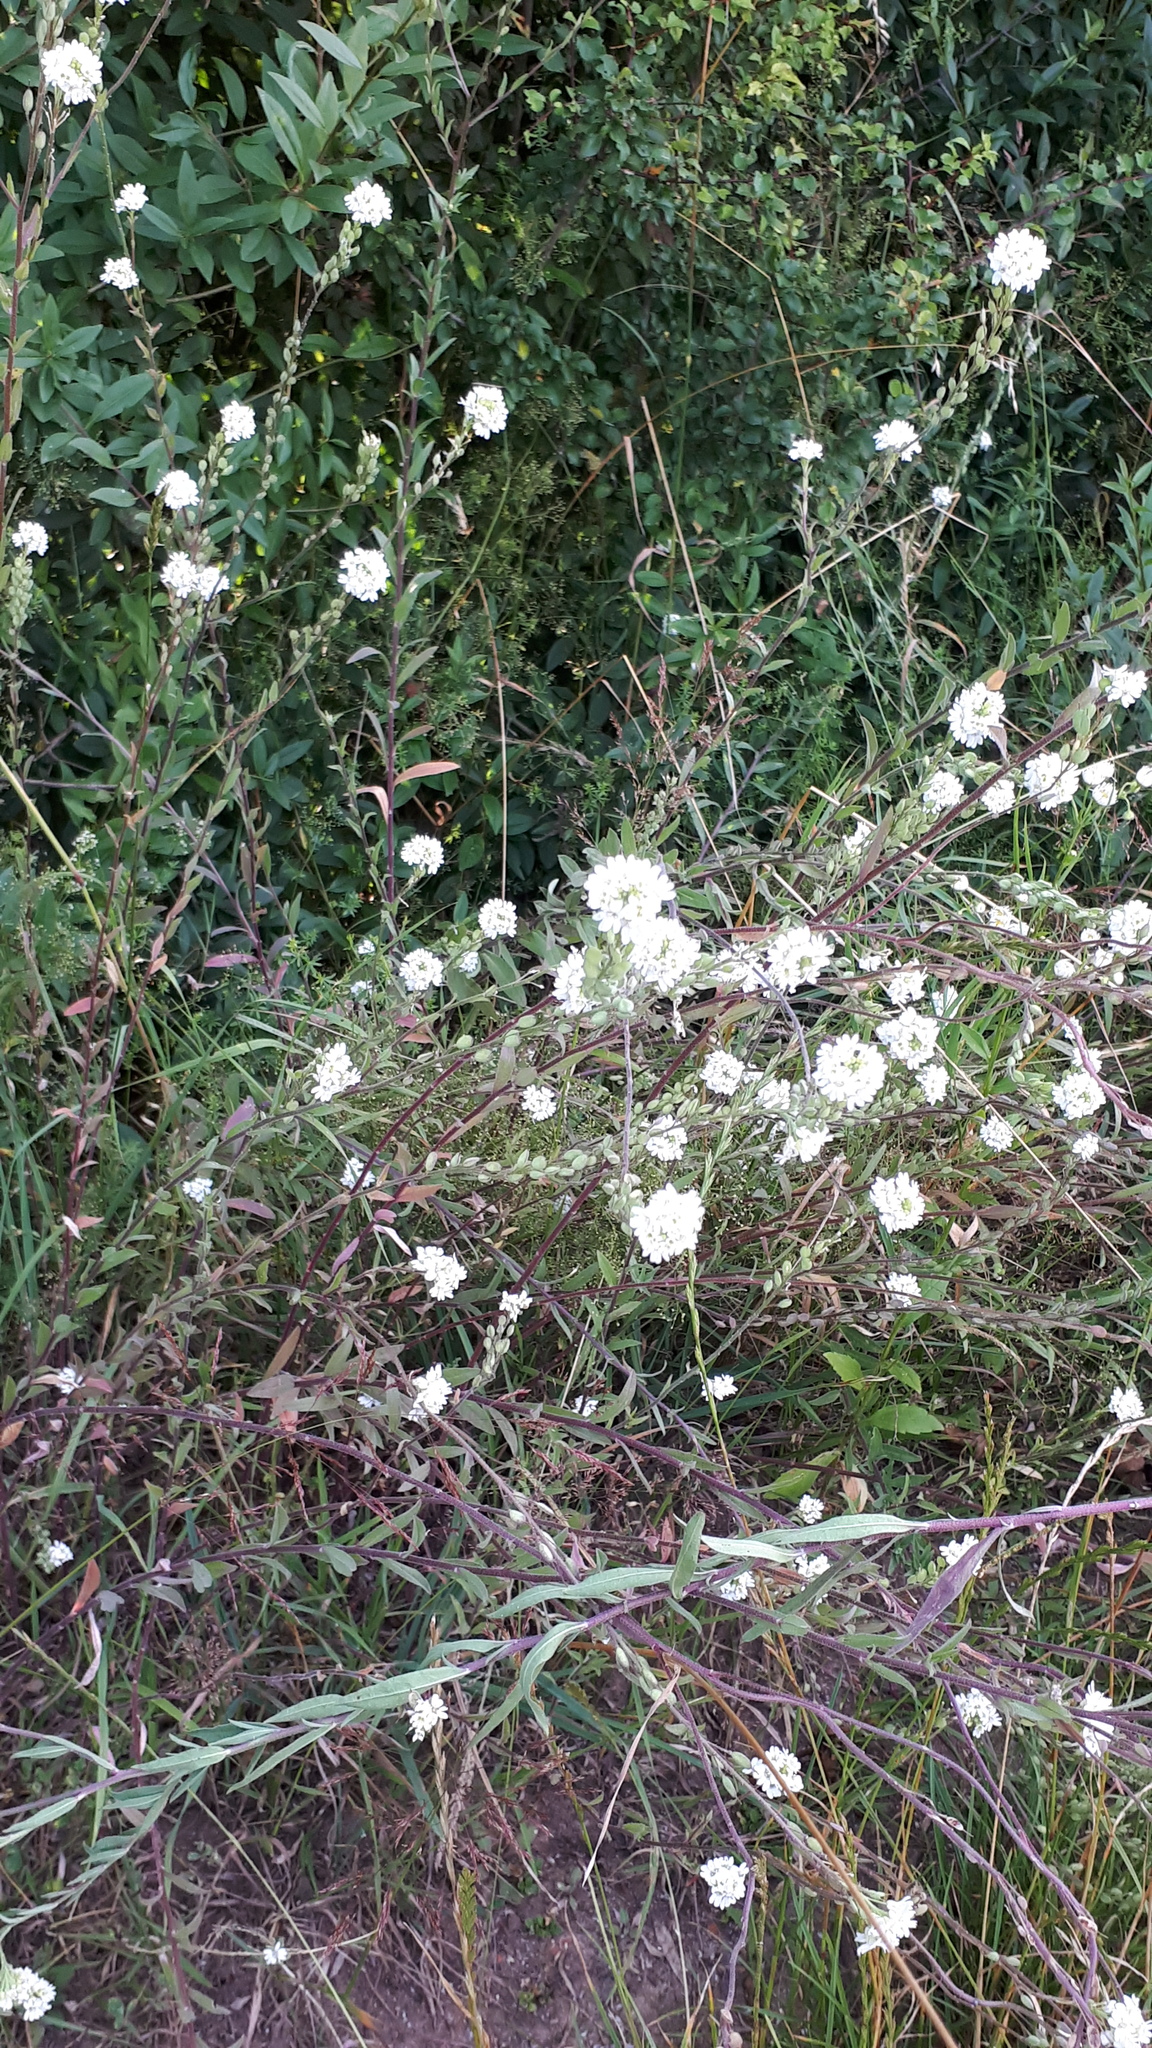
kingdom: Plantae
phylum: Tracheophyta
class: Magnoliopsida
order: Brassicales
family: Brassicaceae
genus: Berteroa
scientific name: Berteroa incana
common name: Hoary alison
